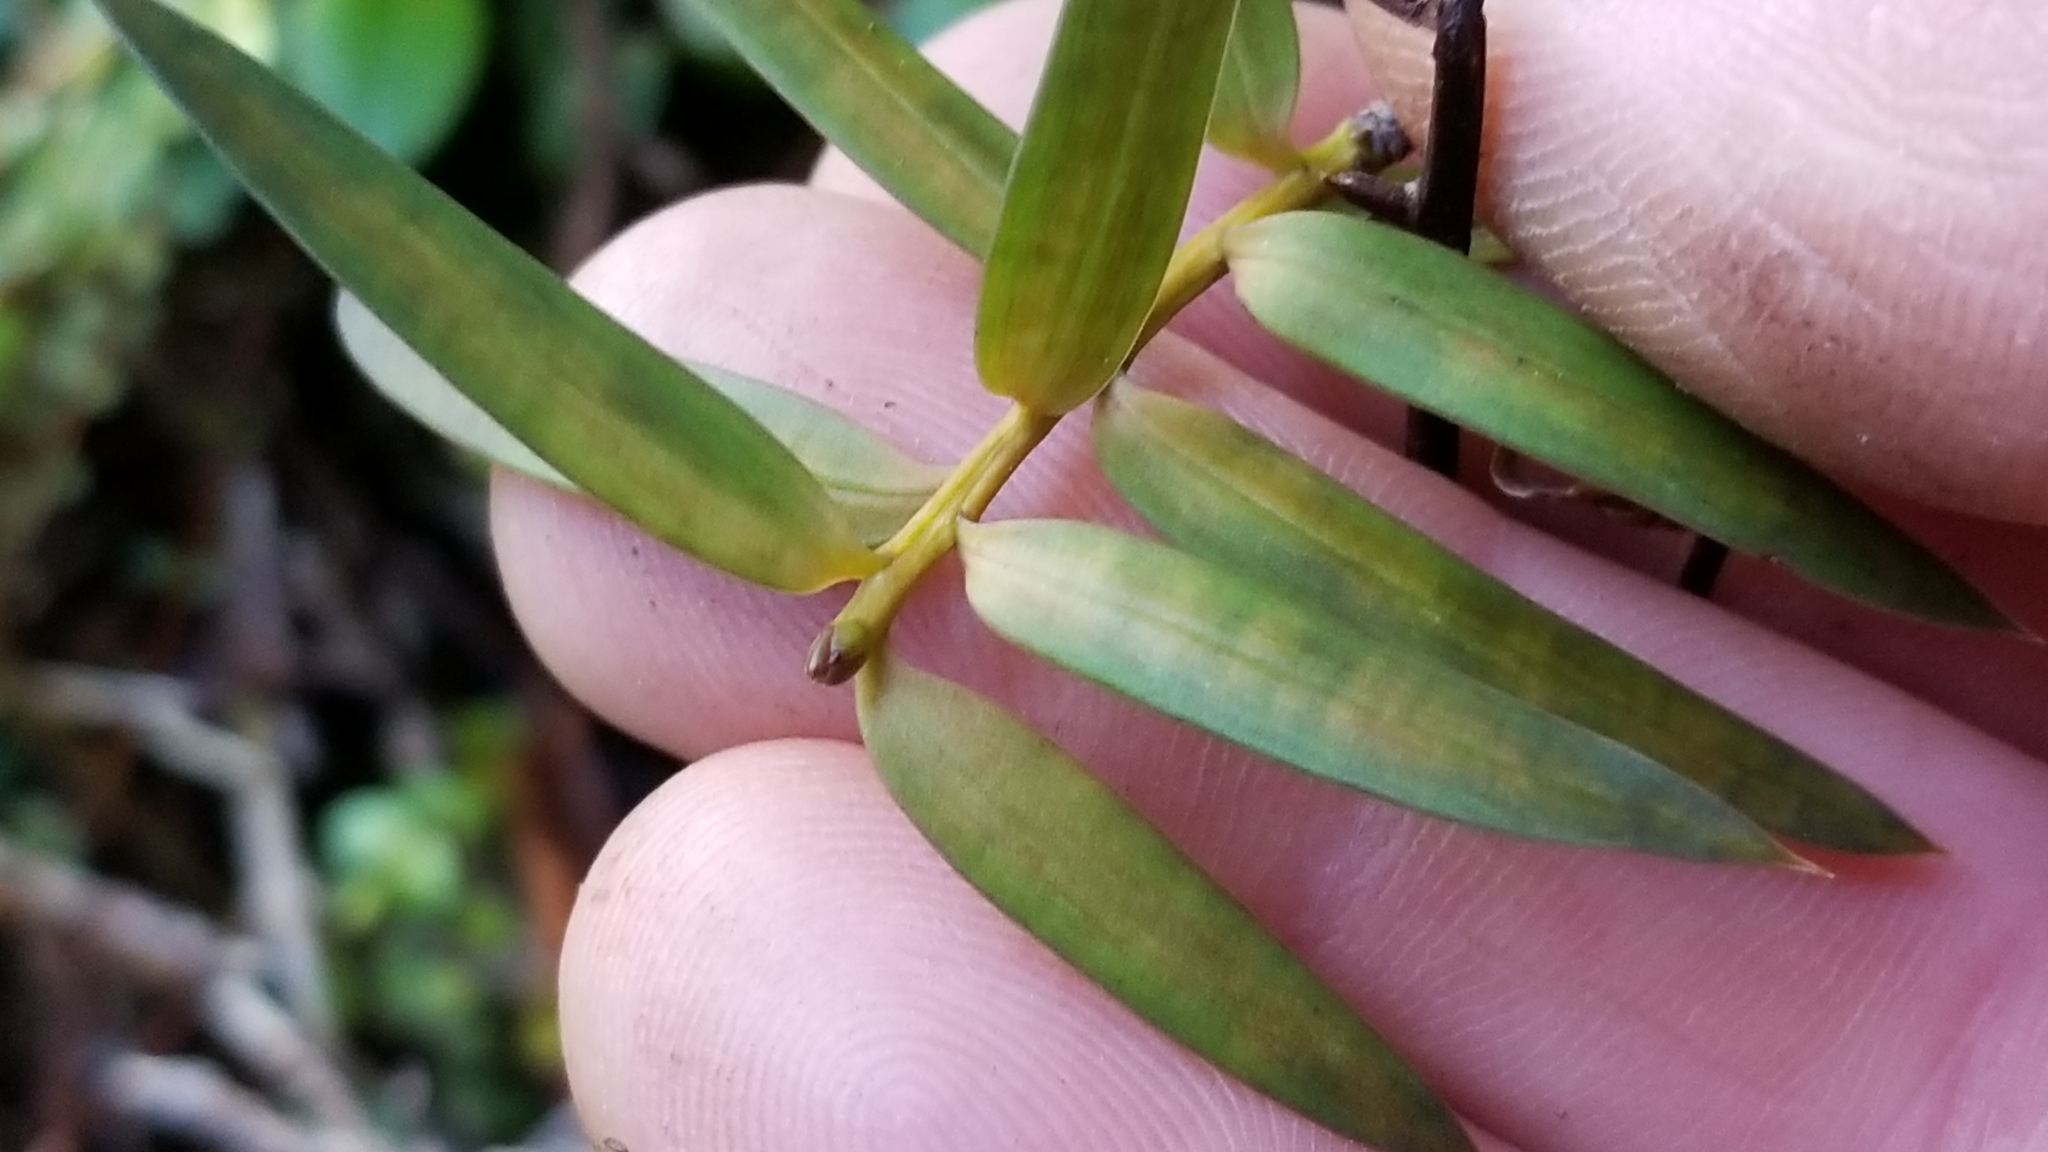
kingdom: Plantae
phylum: Tracheophyta
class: Pinopsida
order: Pinales
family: Podocarpaceae
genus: Podocarpus
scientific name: Podocarpus laetus
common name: Hall's totara
